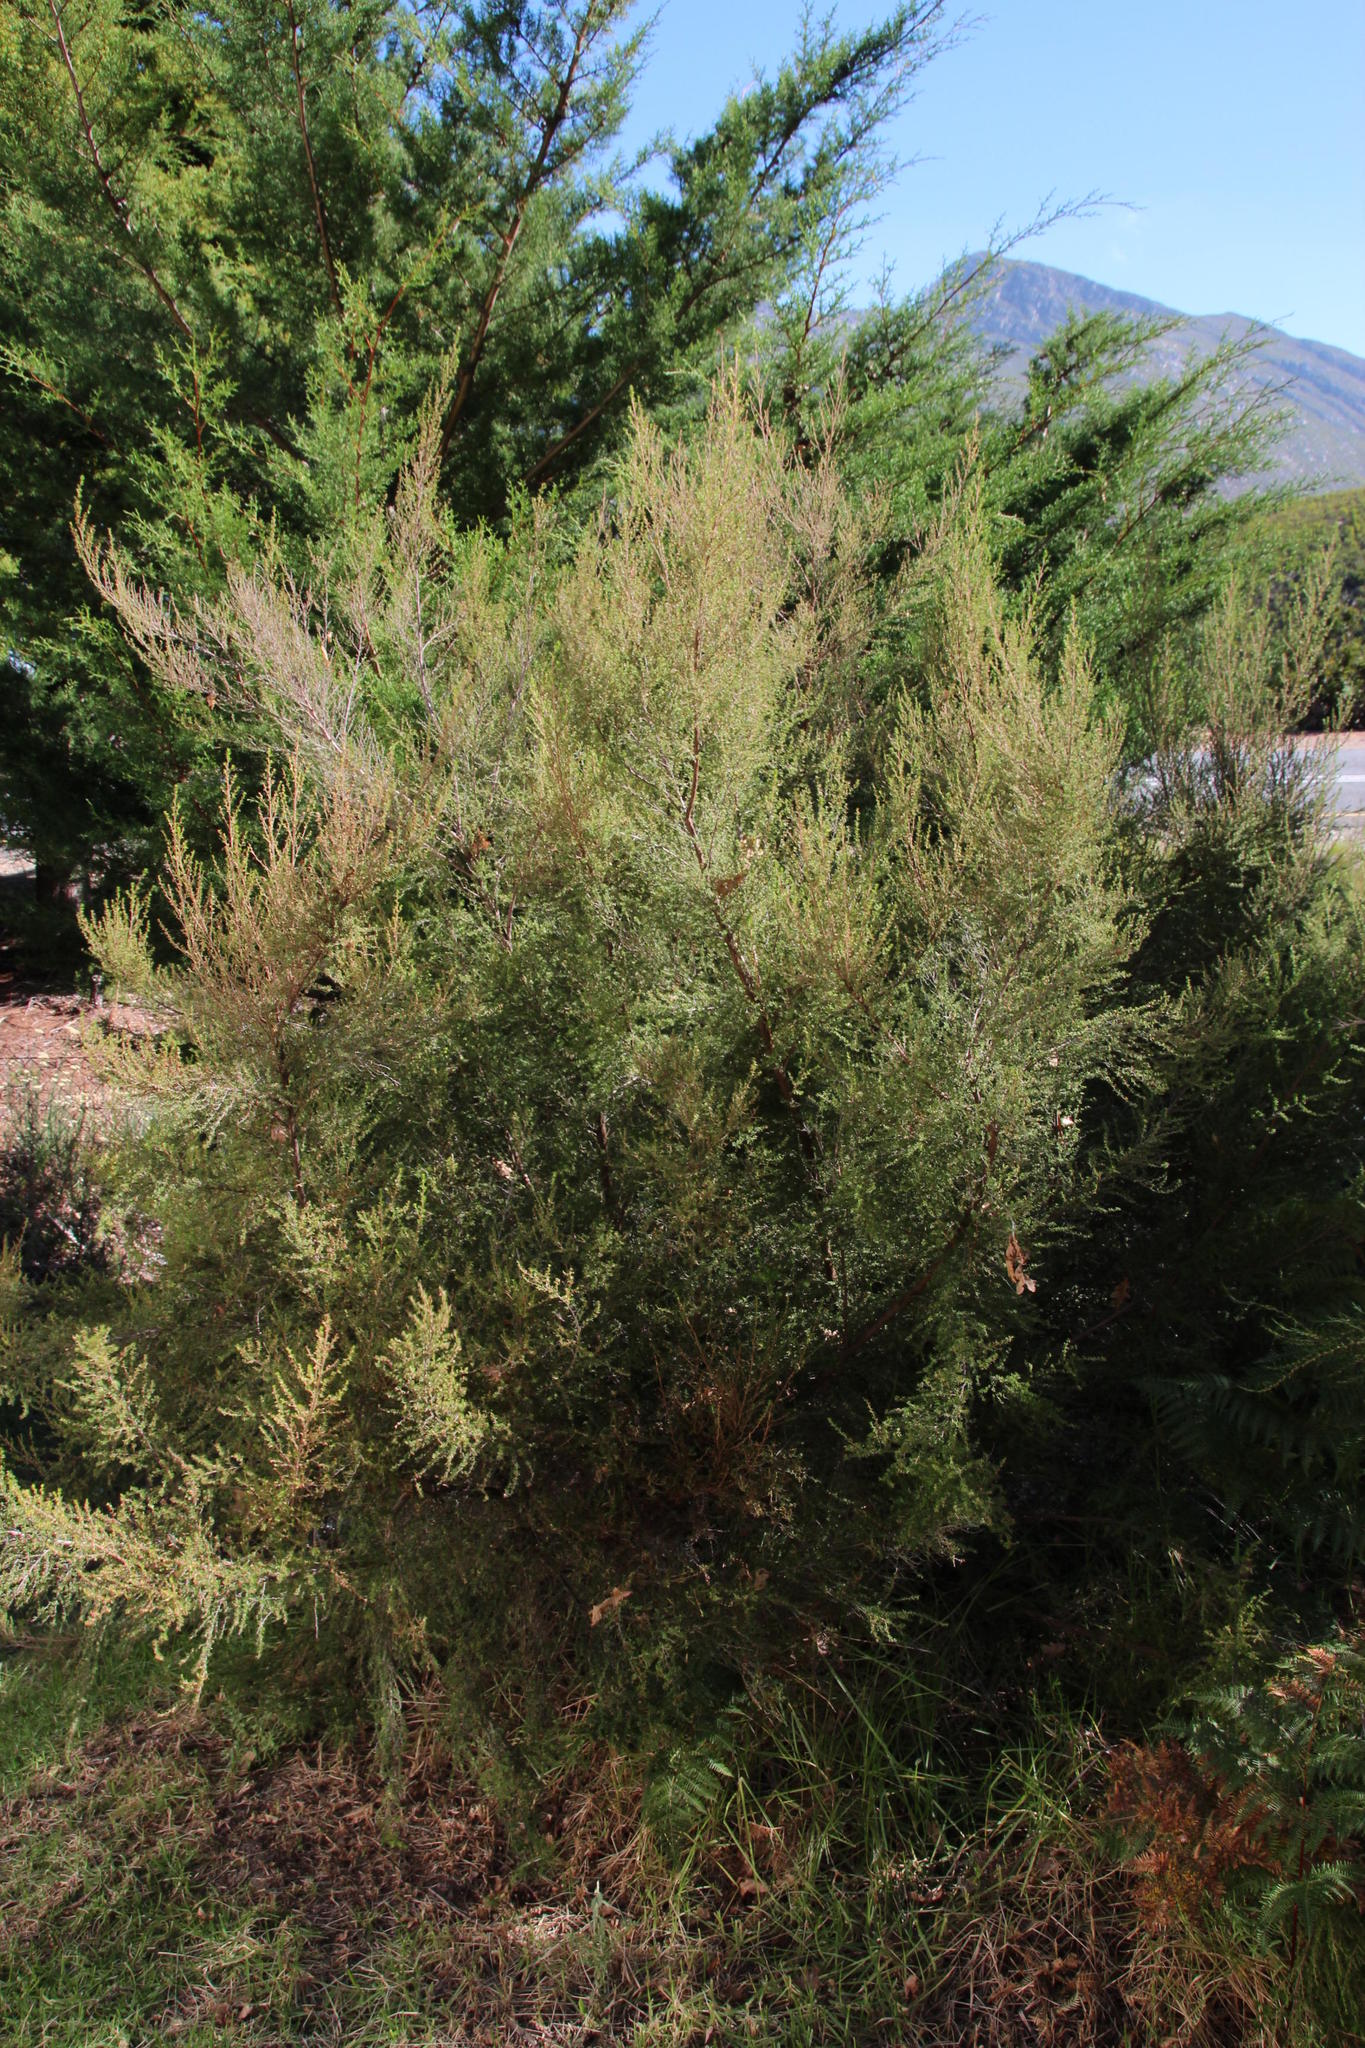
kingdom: Plantae
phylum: Tracheophyta
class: Magnoliopsida
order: Rosales
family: Rosaceae
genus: Cliffortia
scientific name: Cliffortia serpyllifolia
